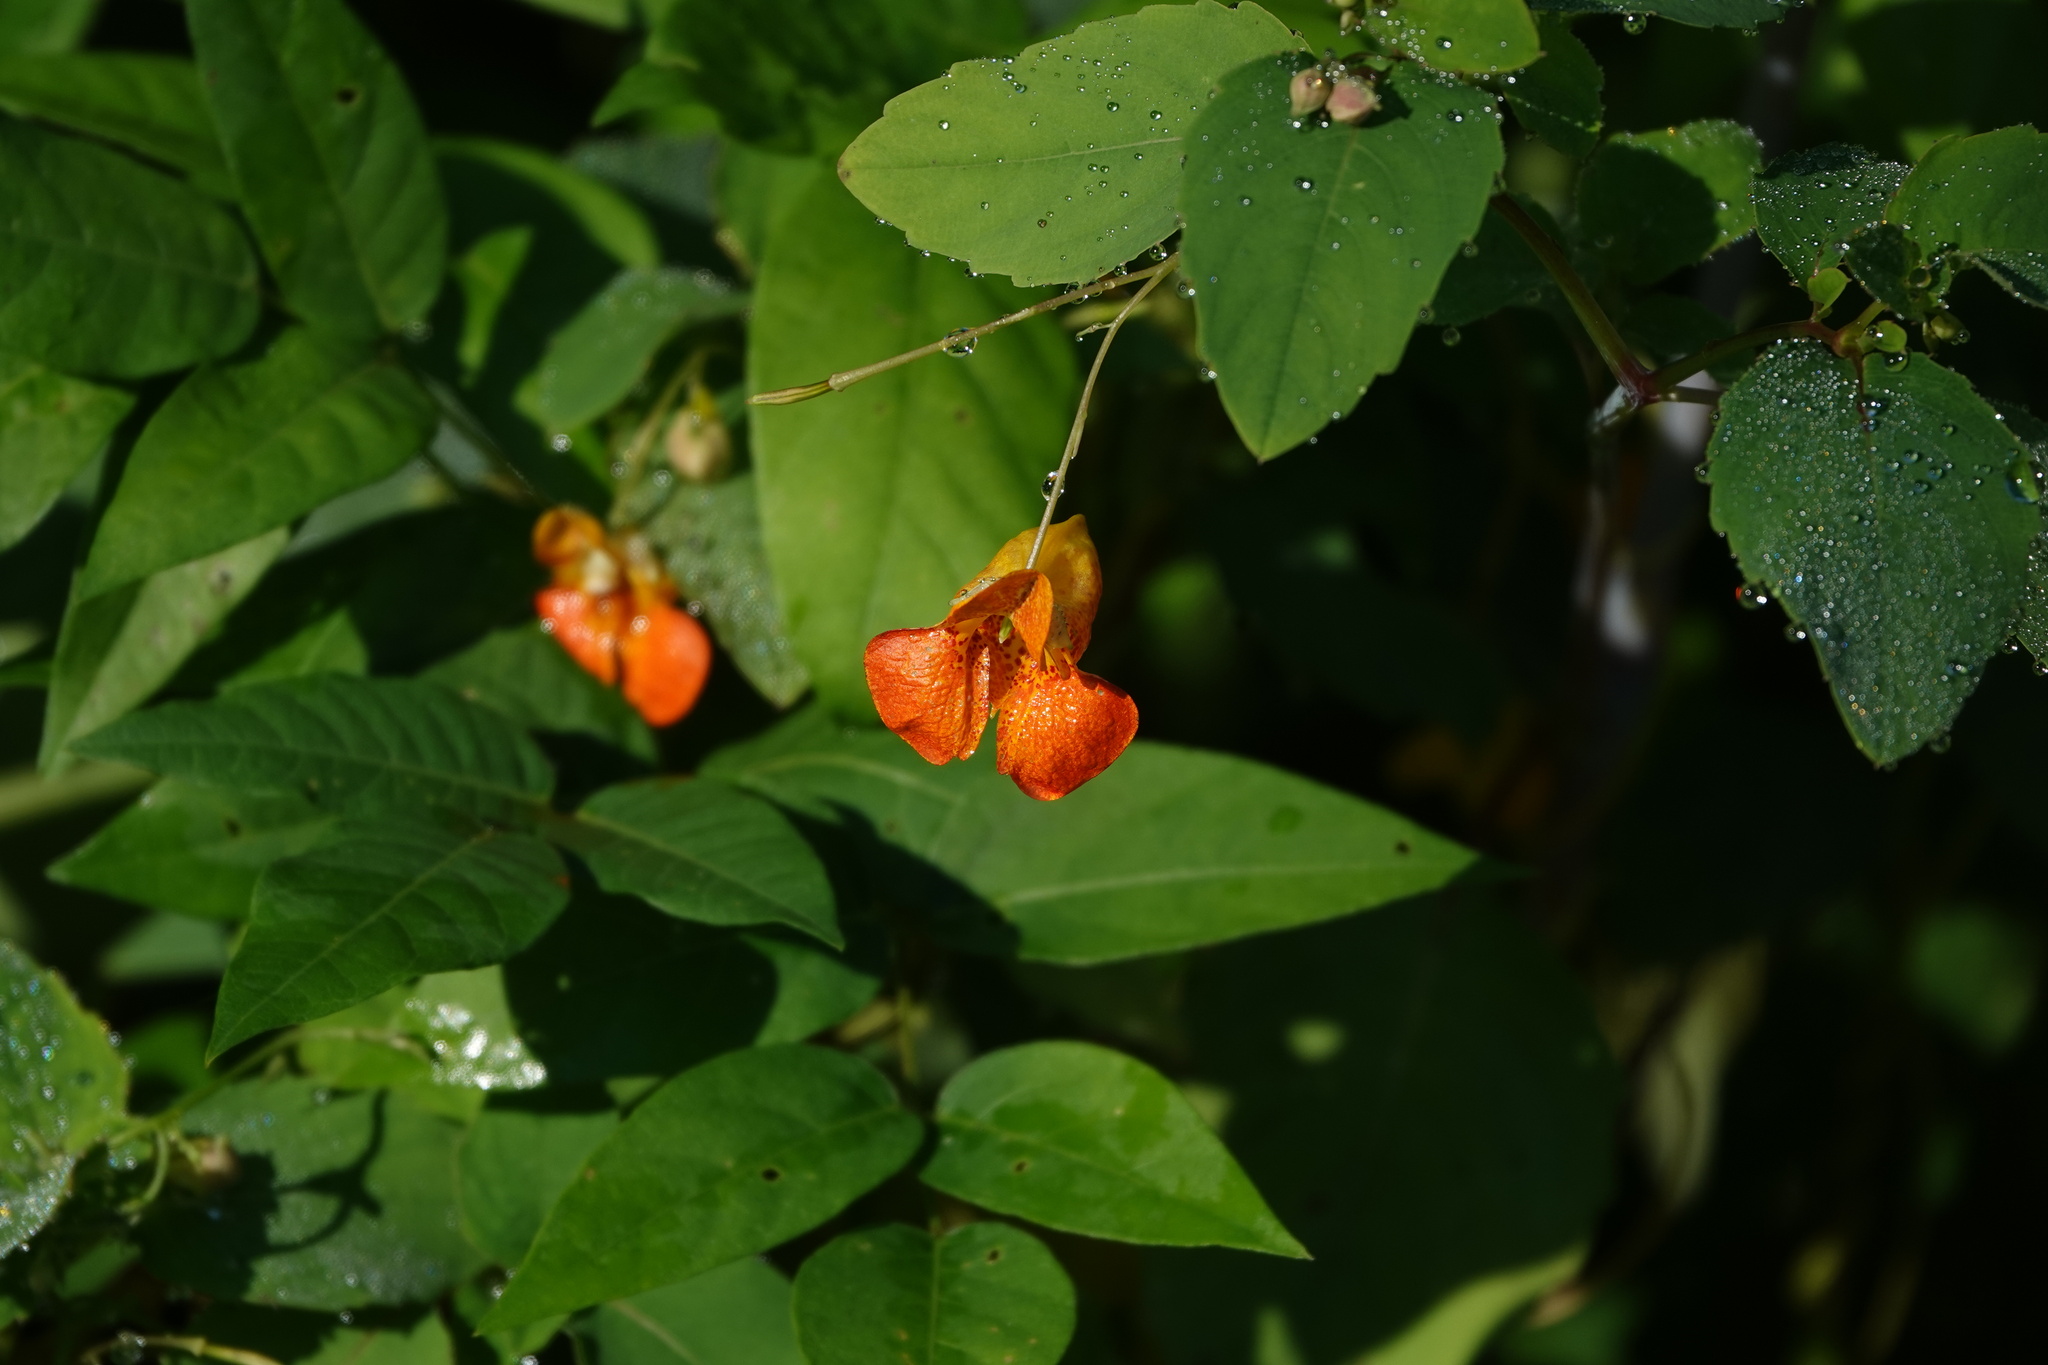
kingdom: Plantae
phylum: Tracheophyta
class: Magnoliopsida
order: Ericales
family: Balsaminaceae
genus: Impatiens
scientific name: Impatiens capensis
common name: Orange balsam
